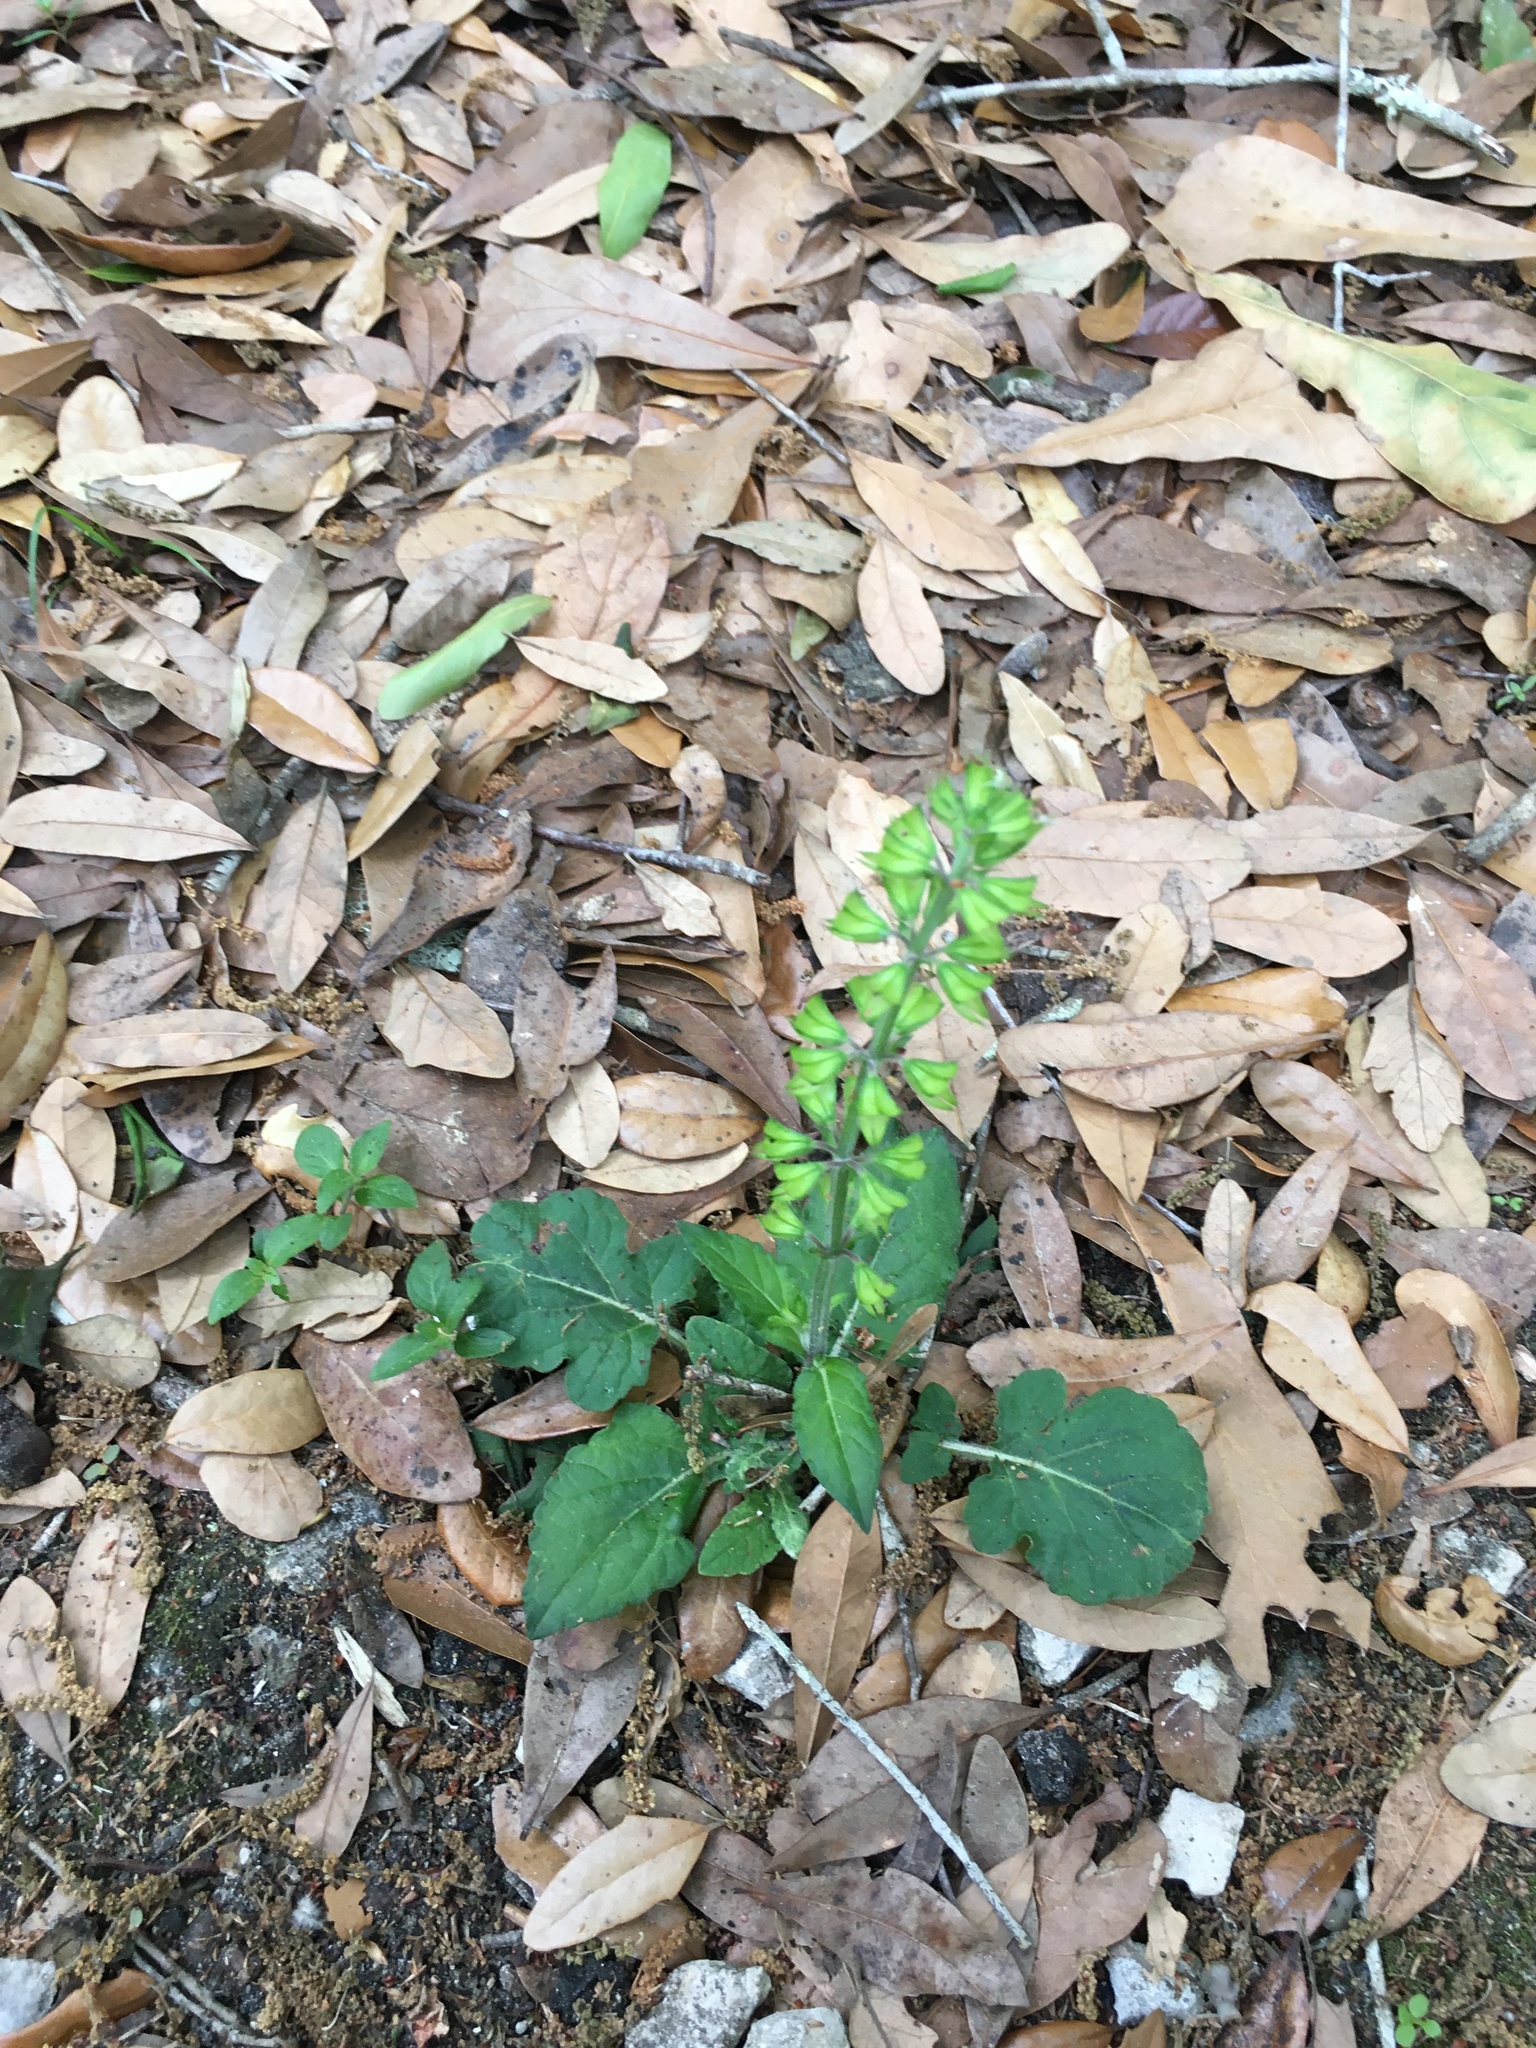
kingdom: Plantae
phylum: Tracheophyta
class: Magnoliopsida
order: Lamiales
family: Lamiaceae
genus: Salvia
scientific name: Salvia lyrata
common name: Cancerweed
